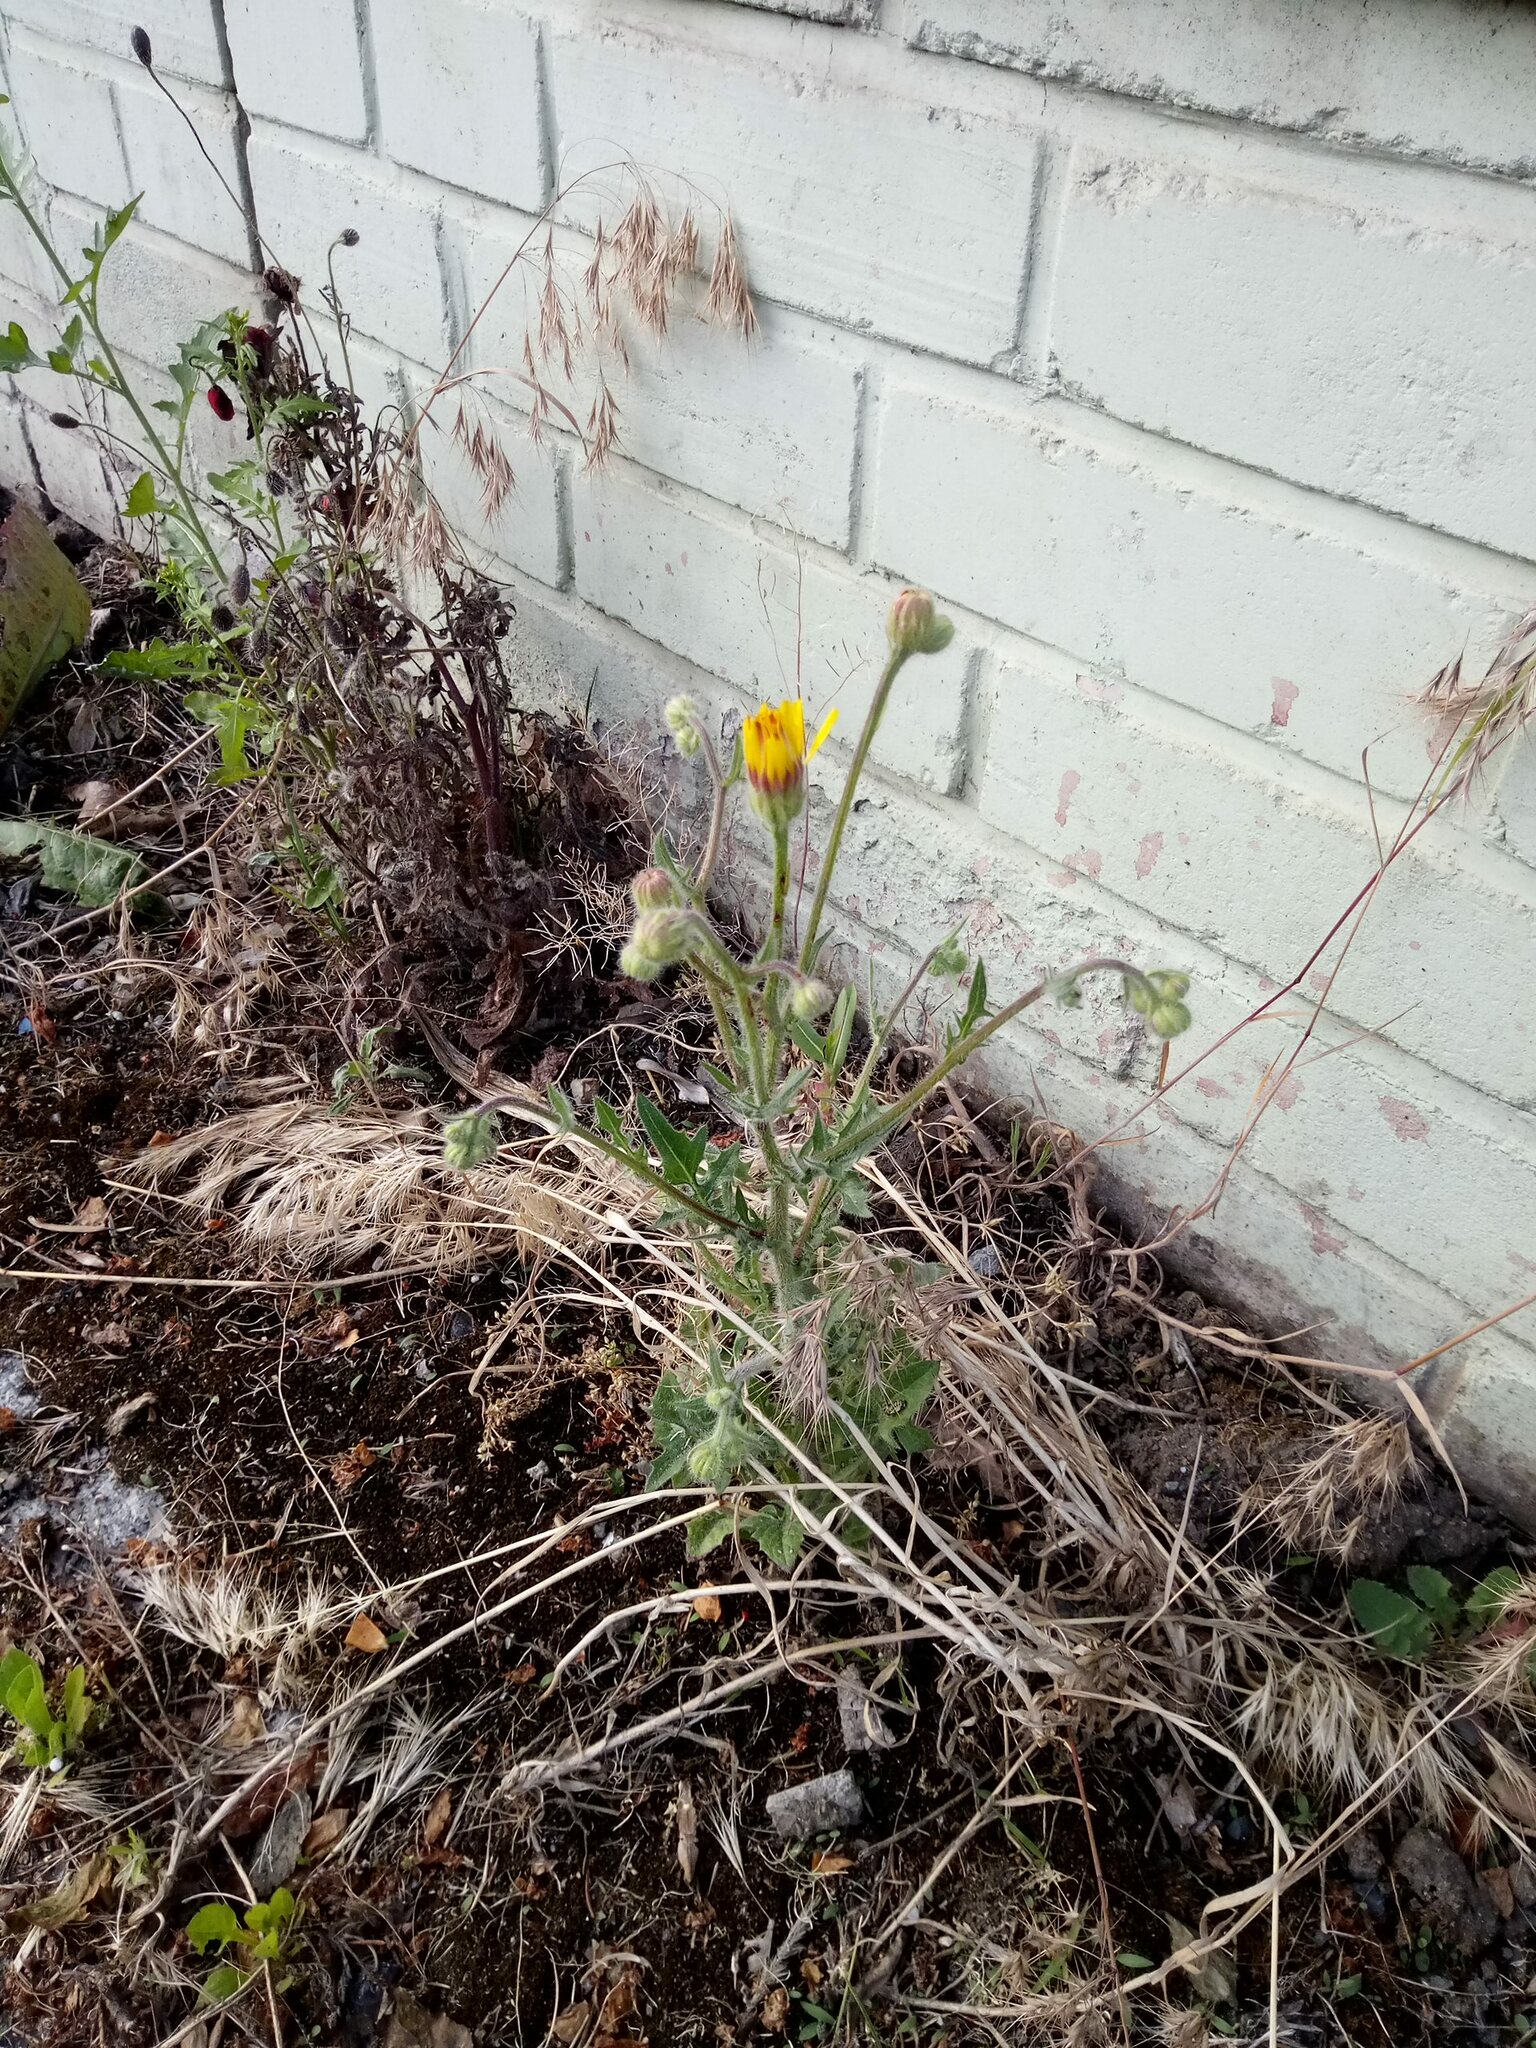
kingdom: Plantae
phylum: Tracheophyta
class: Magnoliopsida
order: Asterales
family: Asteraceae
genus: Crepis
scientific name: Crepis foetida
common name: Stinking hawk's-beard
